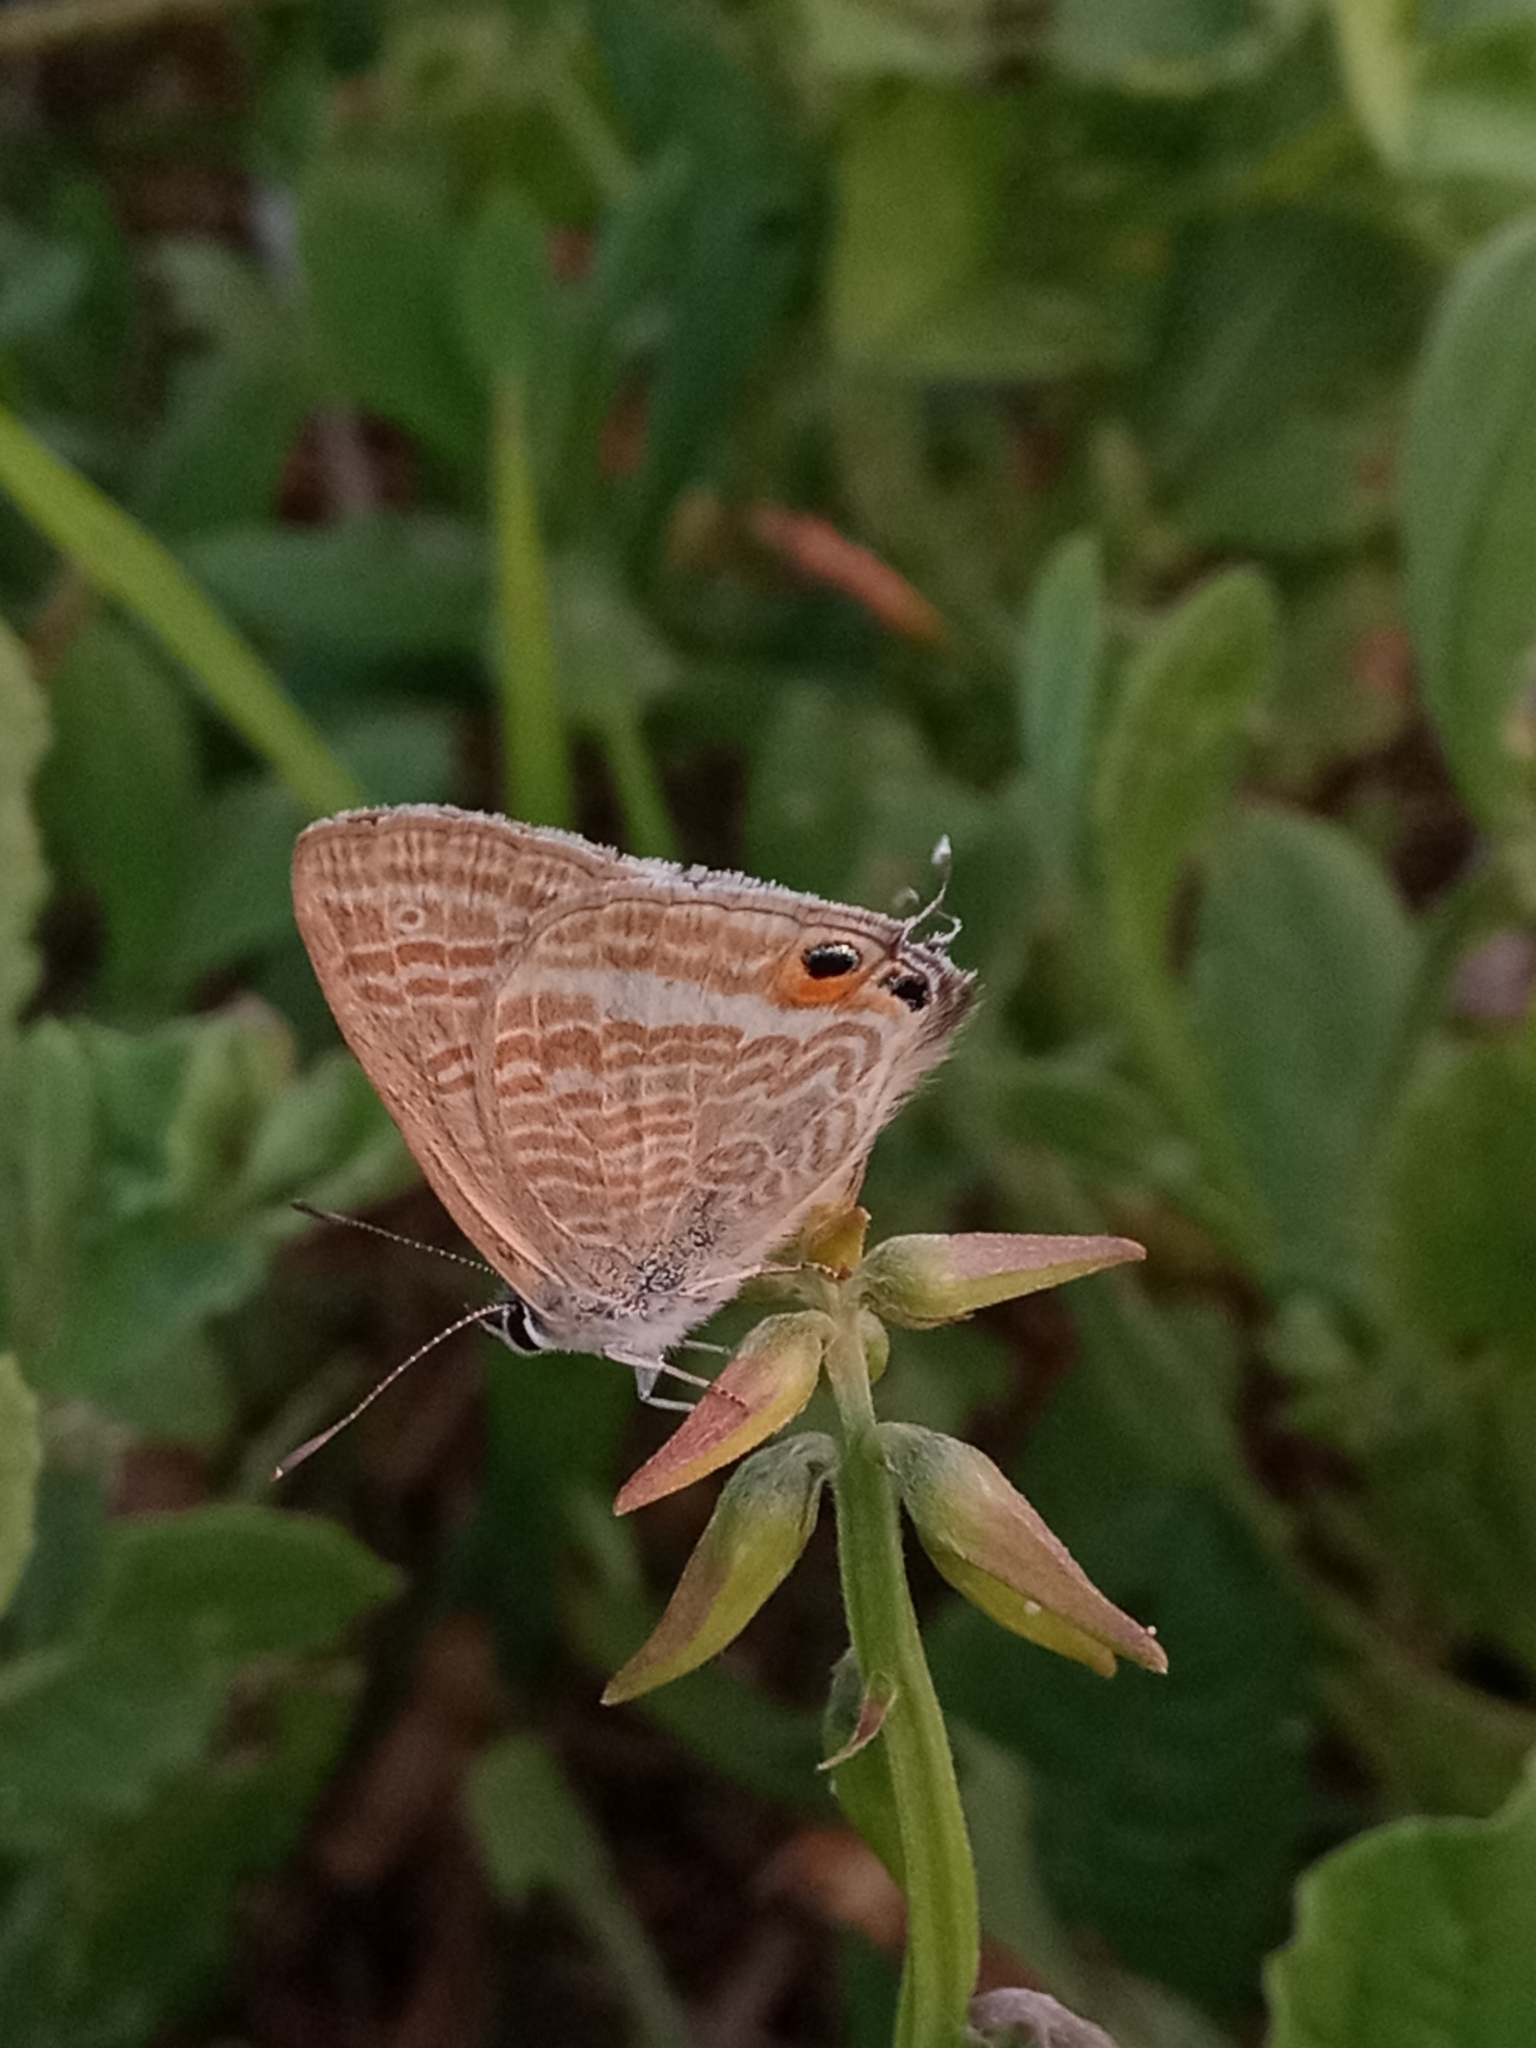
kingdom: Animalia
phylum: Arthropoda
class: Insecta
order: Lepidoptera
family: Lycaenidae
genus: Lampides
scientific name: Lampides boeticus
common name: Long-tailed blue
